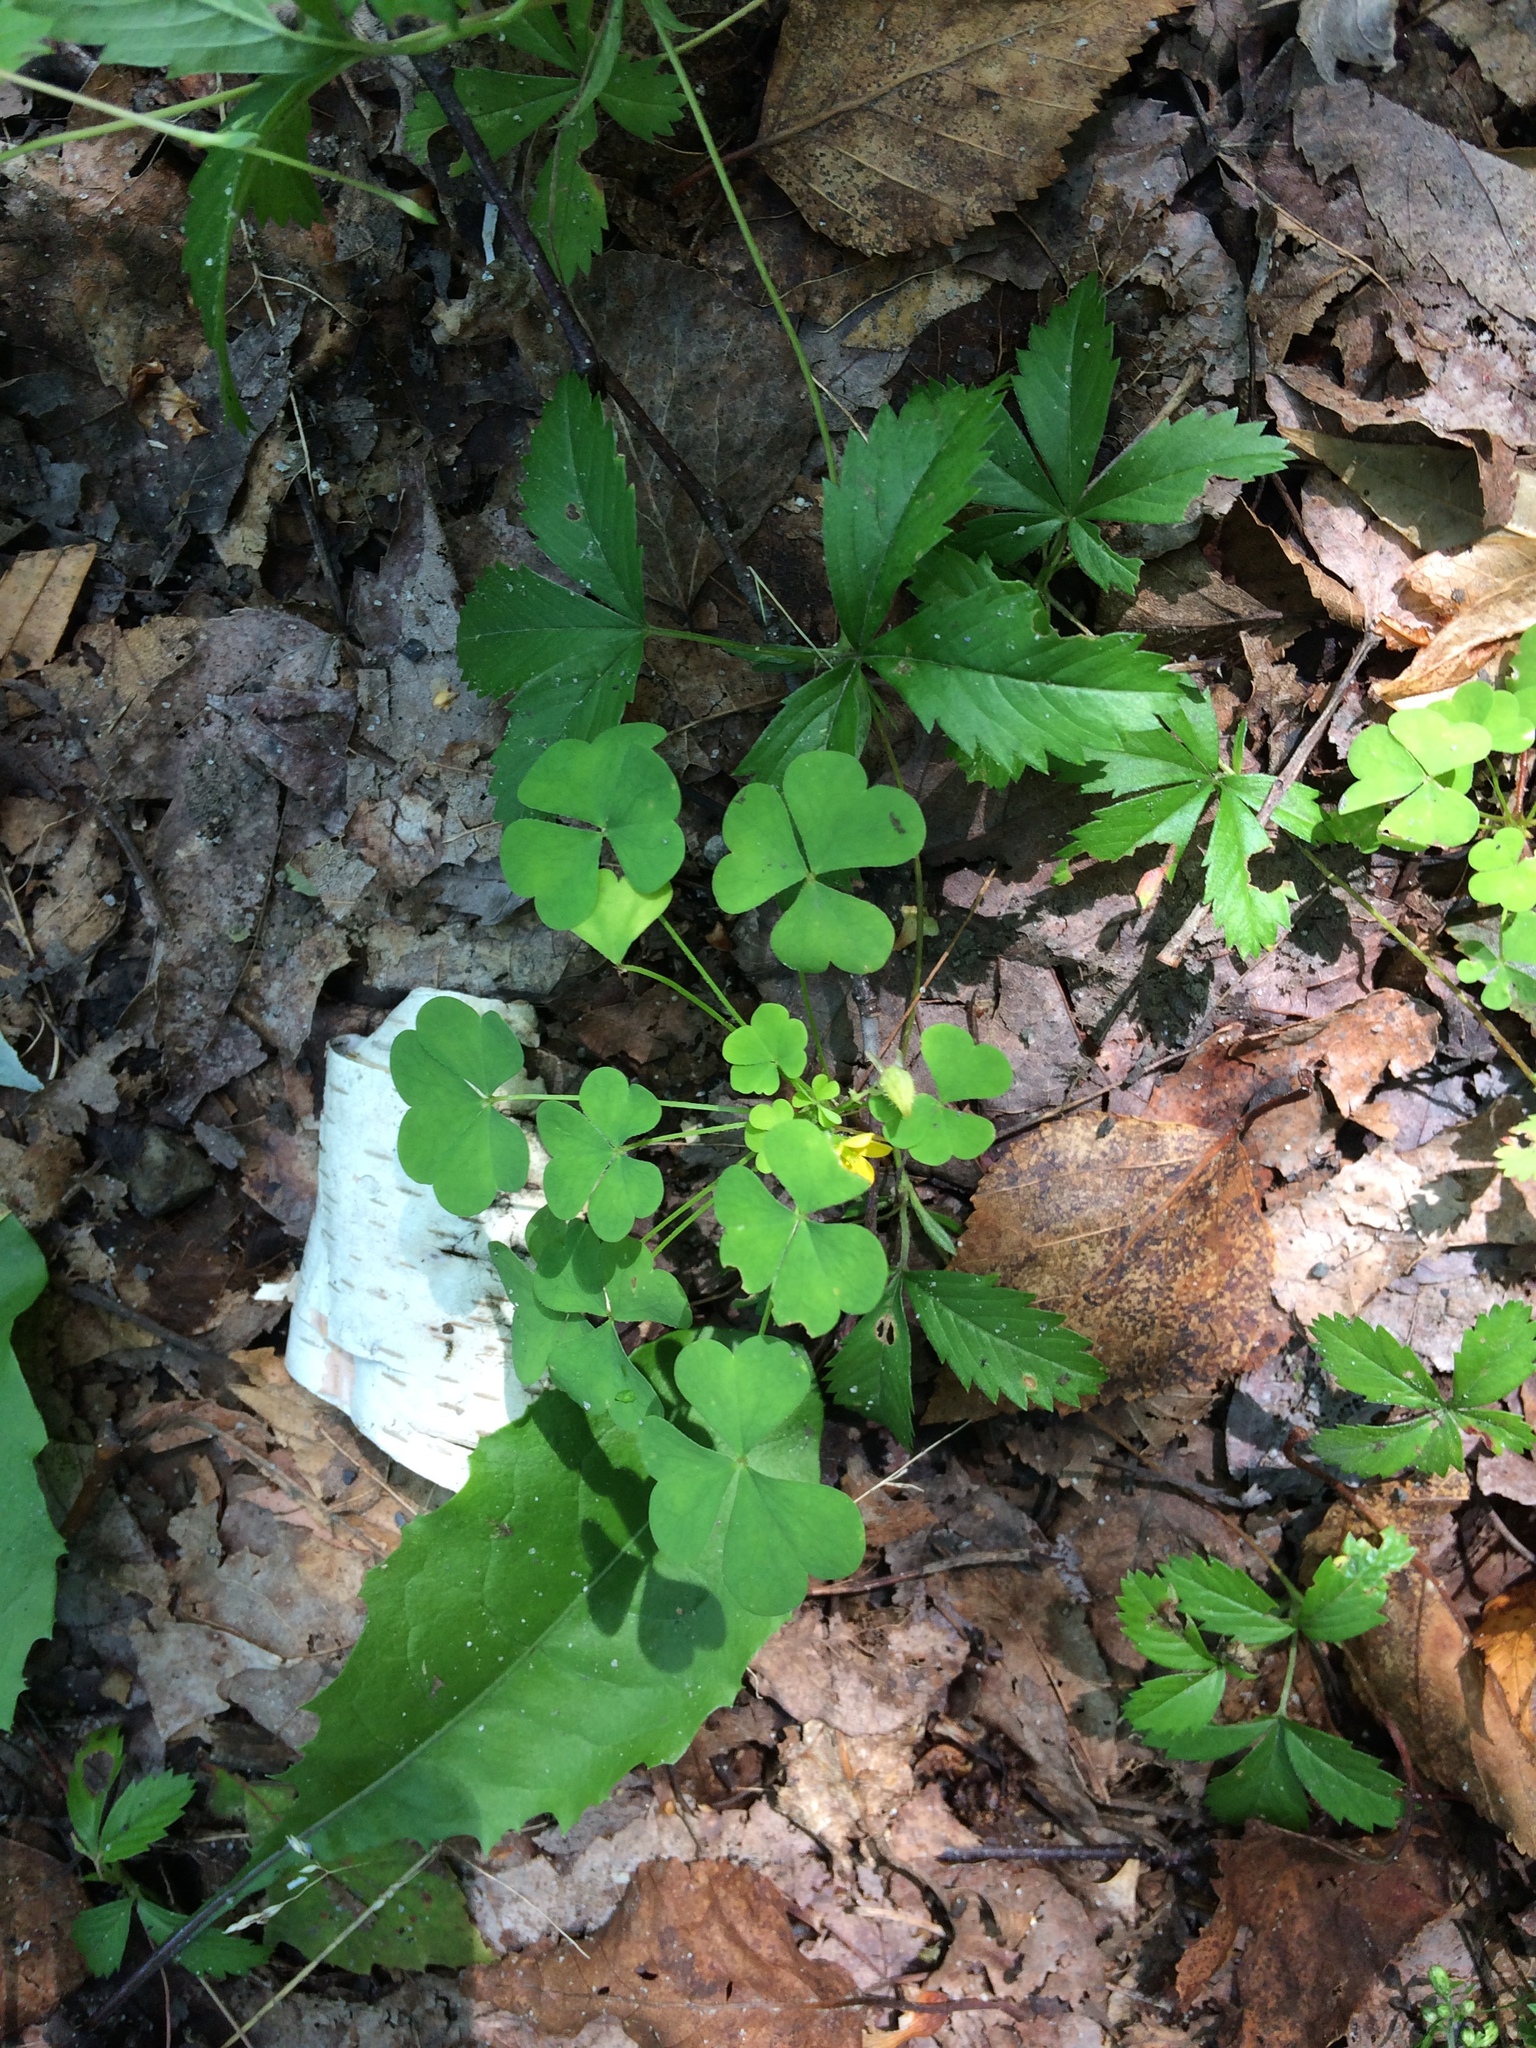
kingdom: Plantae
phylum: Tracheophyta
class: Magnoliopsida
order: Oxalidales
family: Oxalidaceae
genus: Oxalis
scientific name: Oxalis stricta
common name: Upright yellow-sorrel
